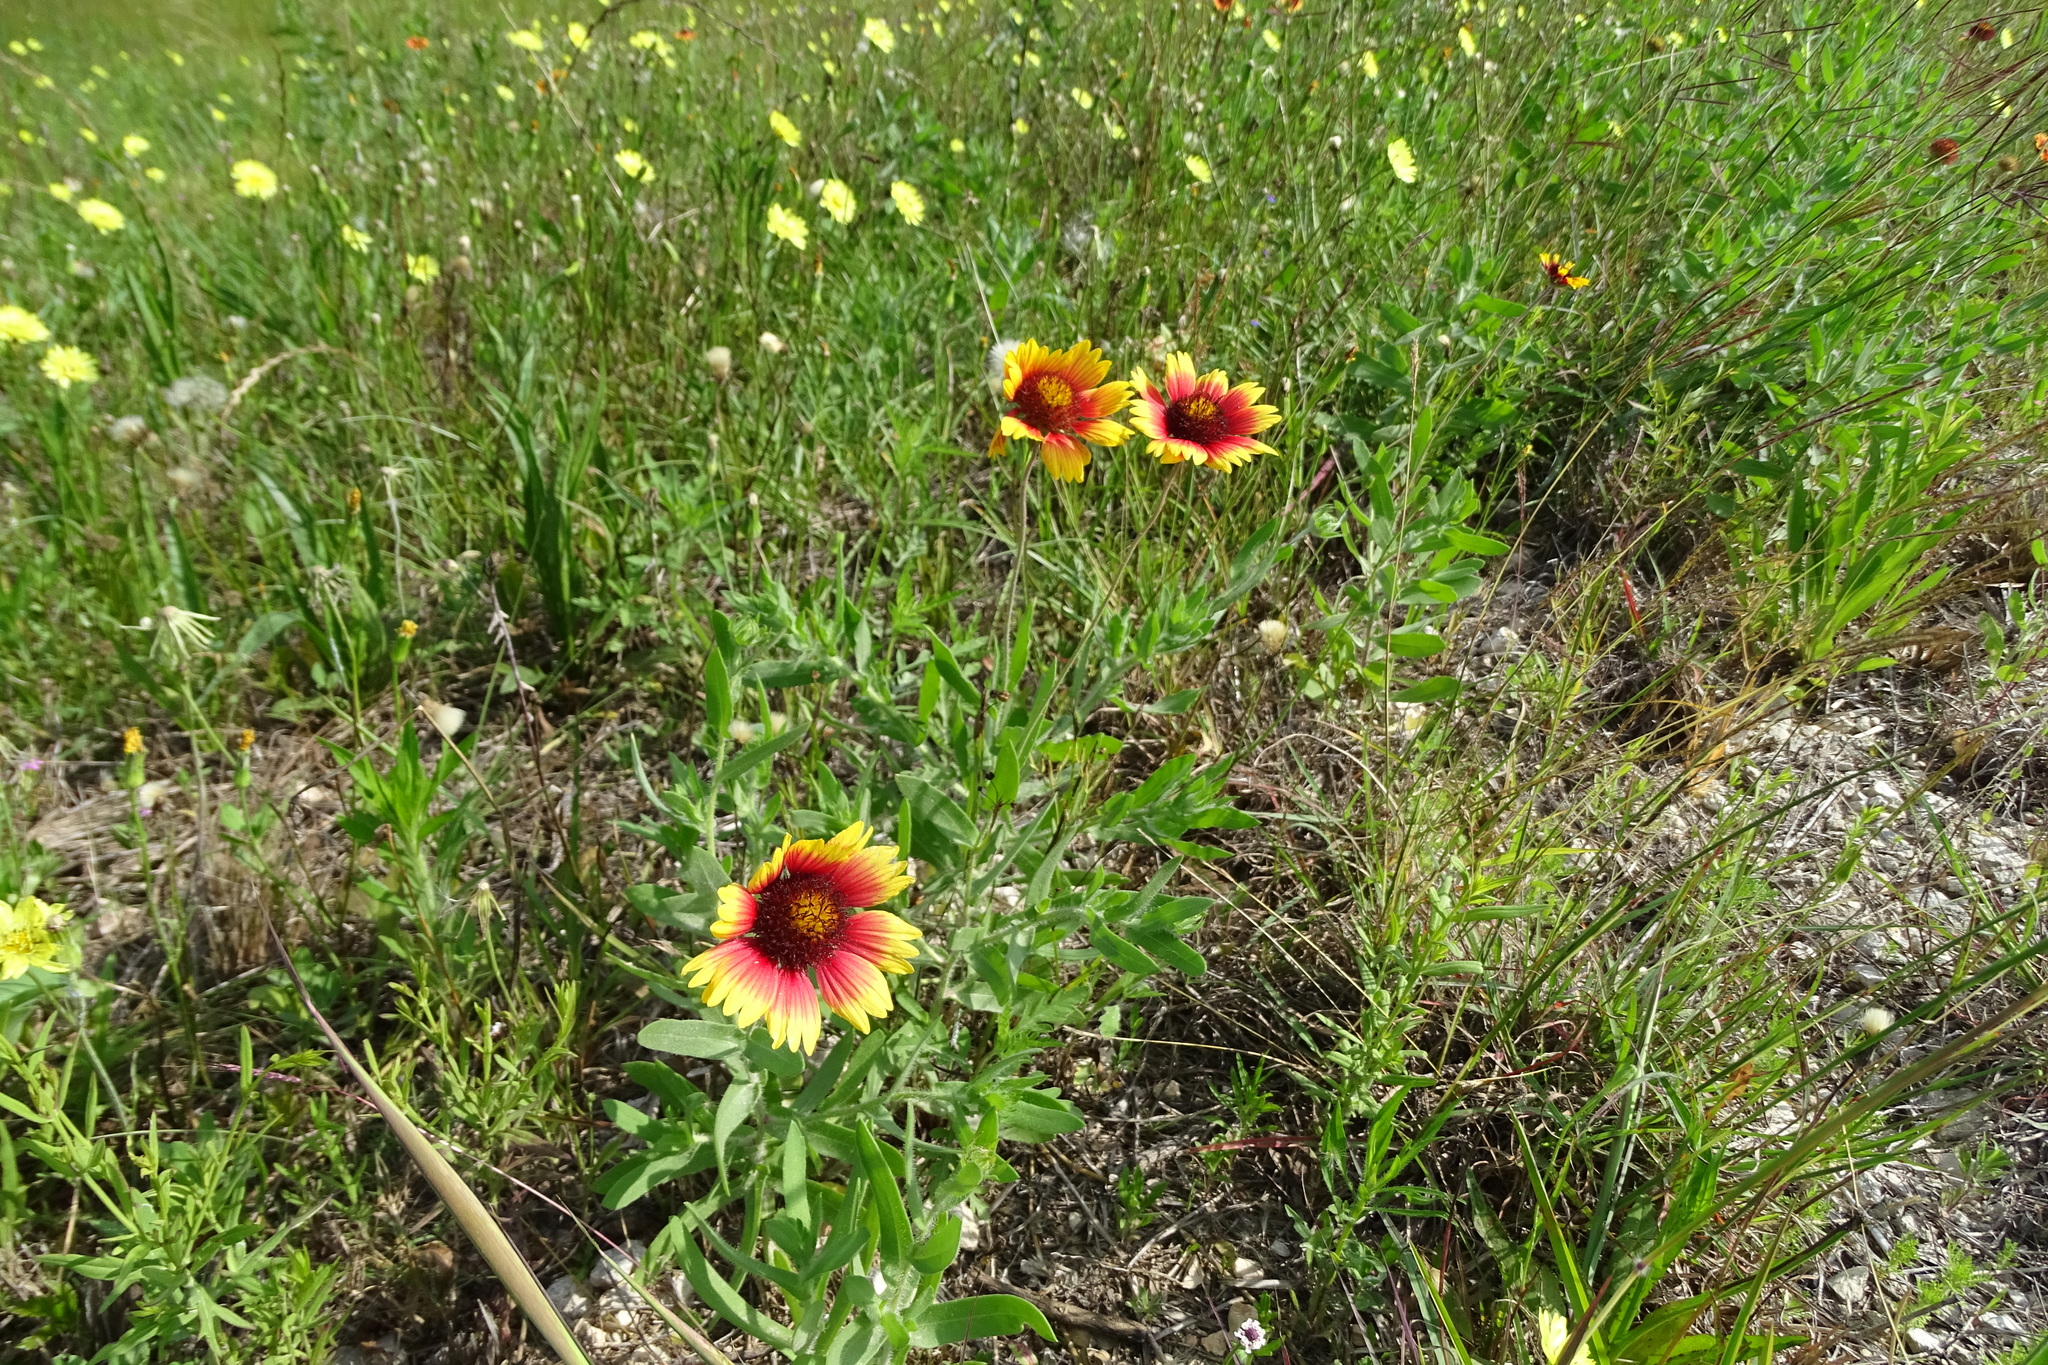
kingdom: Plantae
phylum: Tracheophyta
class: Magnoliopsida
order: Asterales
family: Asteraceae
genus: Gaillardia
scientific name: Gaillardia pulchella
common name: Firewheel
